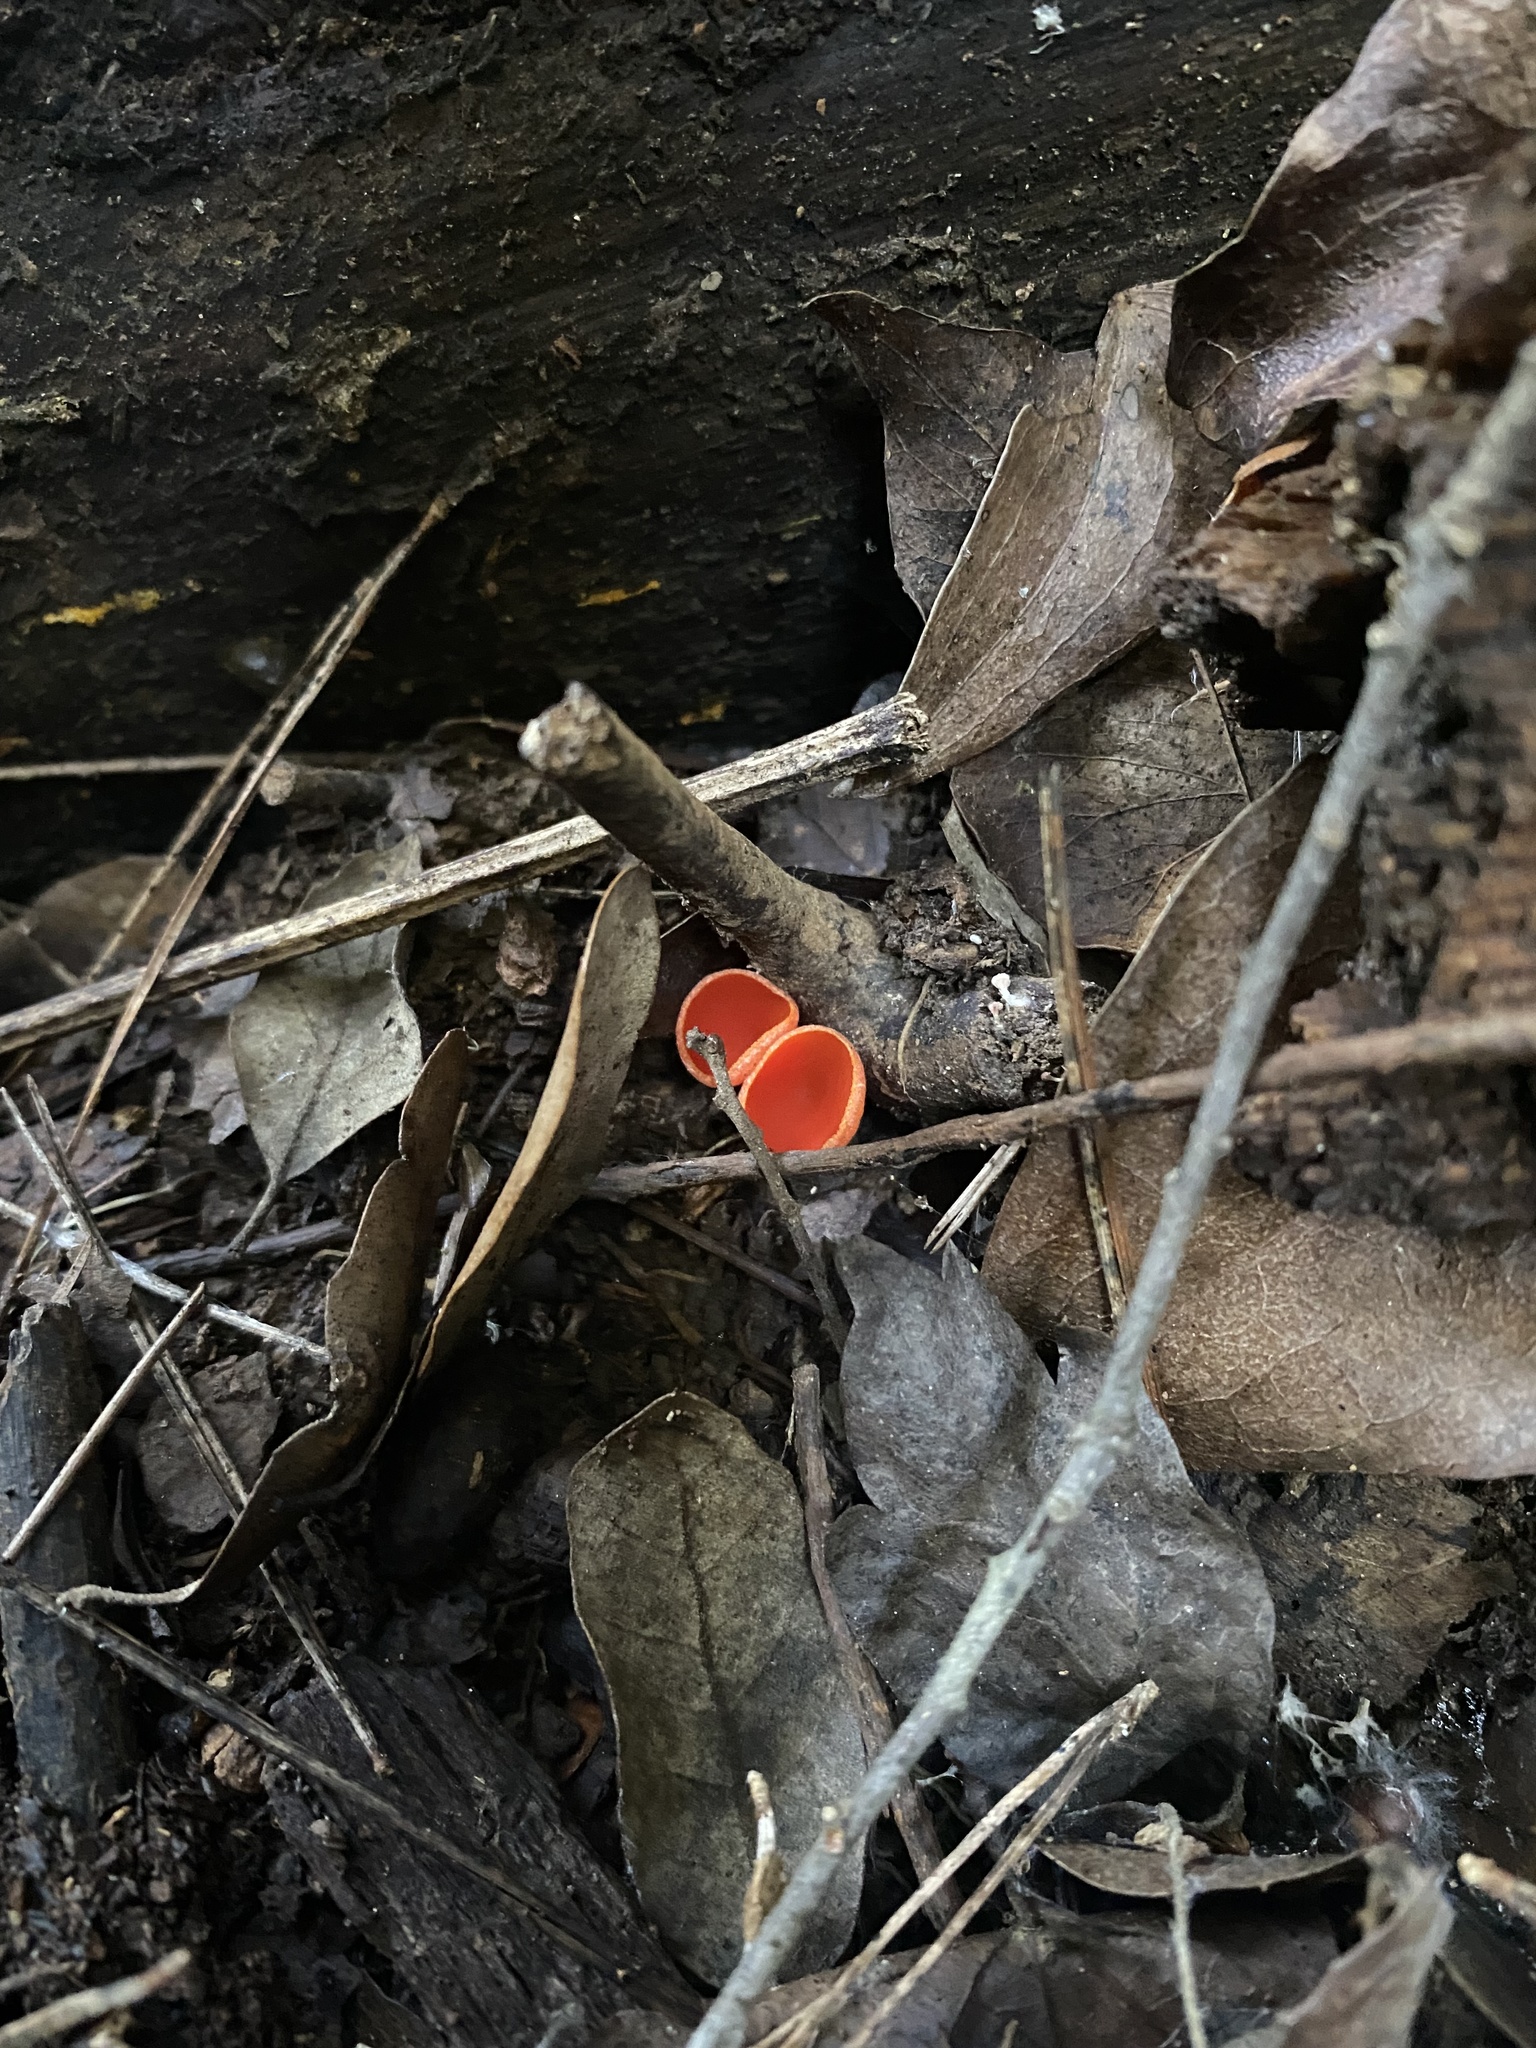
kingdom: Fungi
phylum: Ascomycota
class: Pezizomycetes
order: Pezizales
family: Sarcoscyphaceae
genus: Sarcoscypha
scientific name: Sarcoscypha
